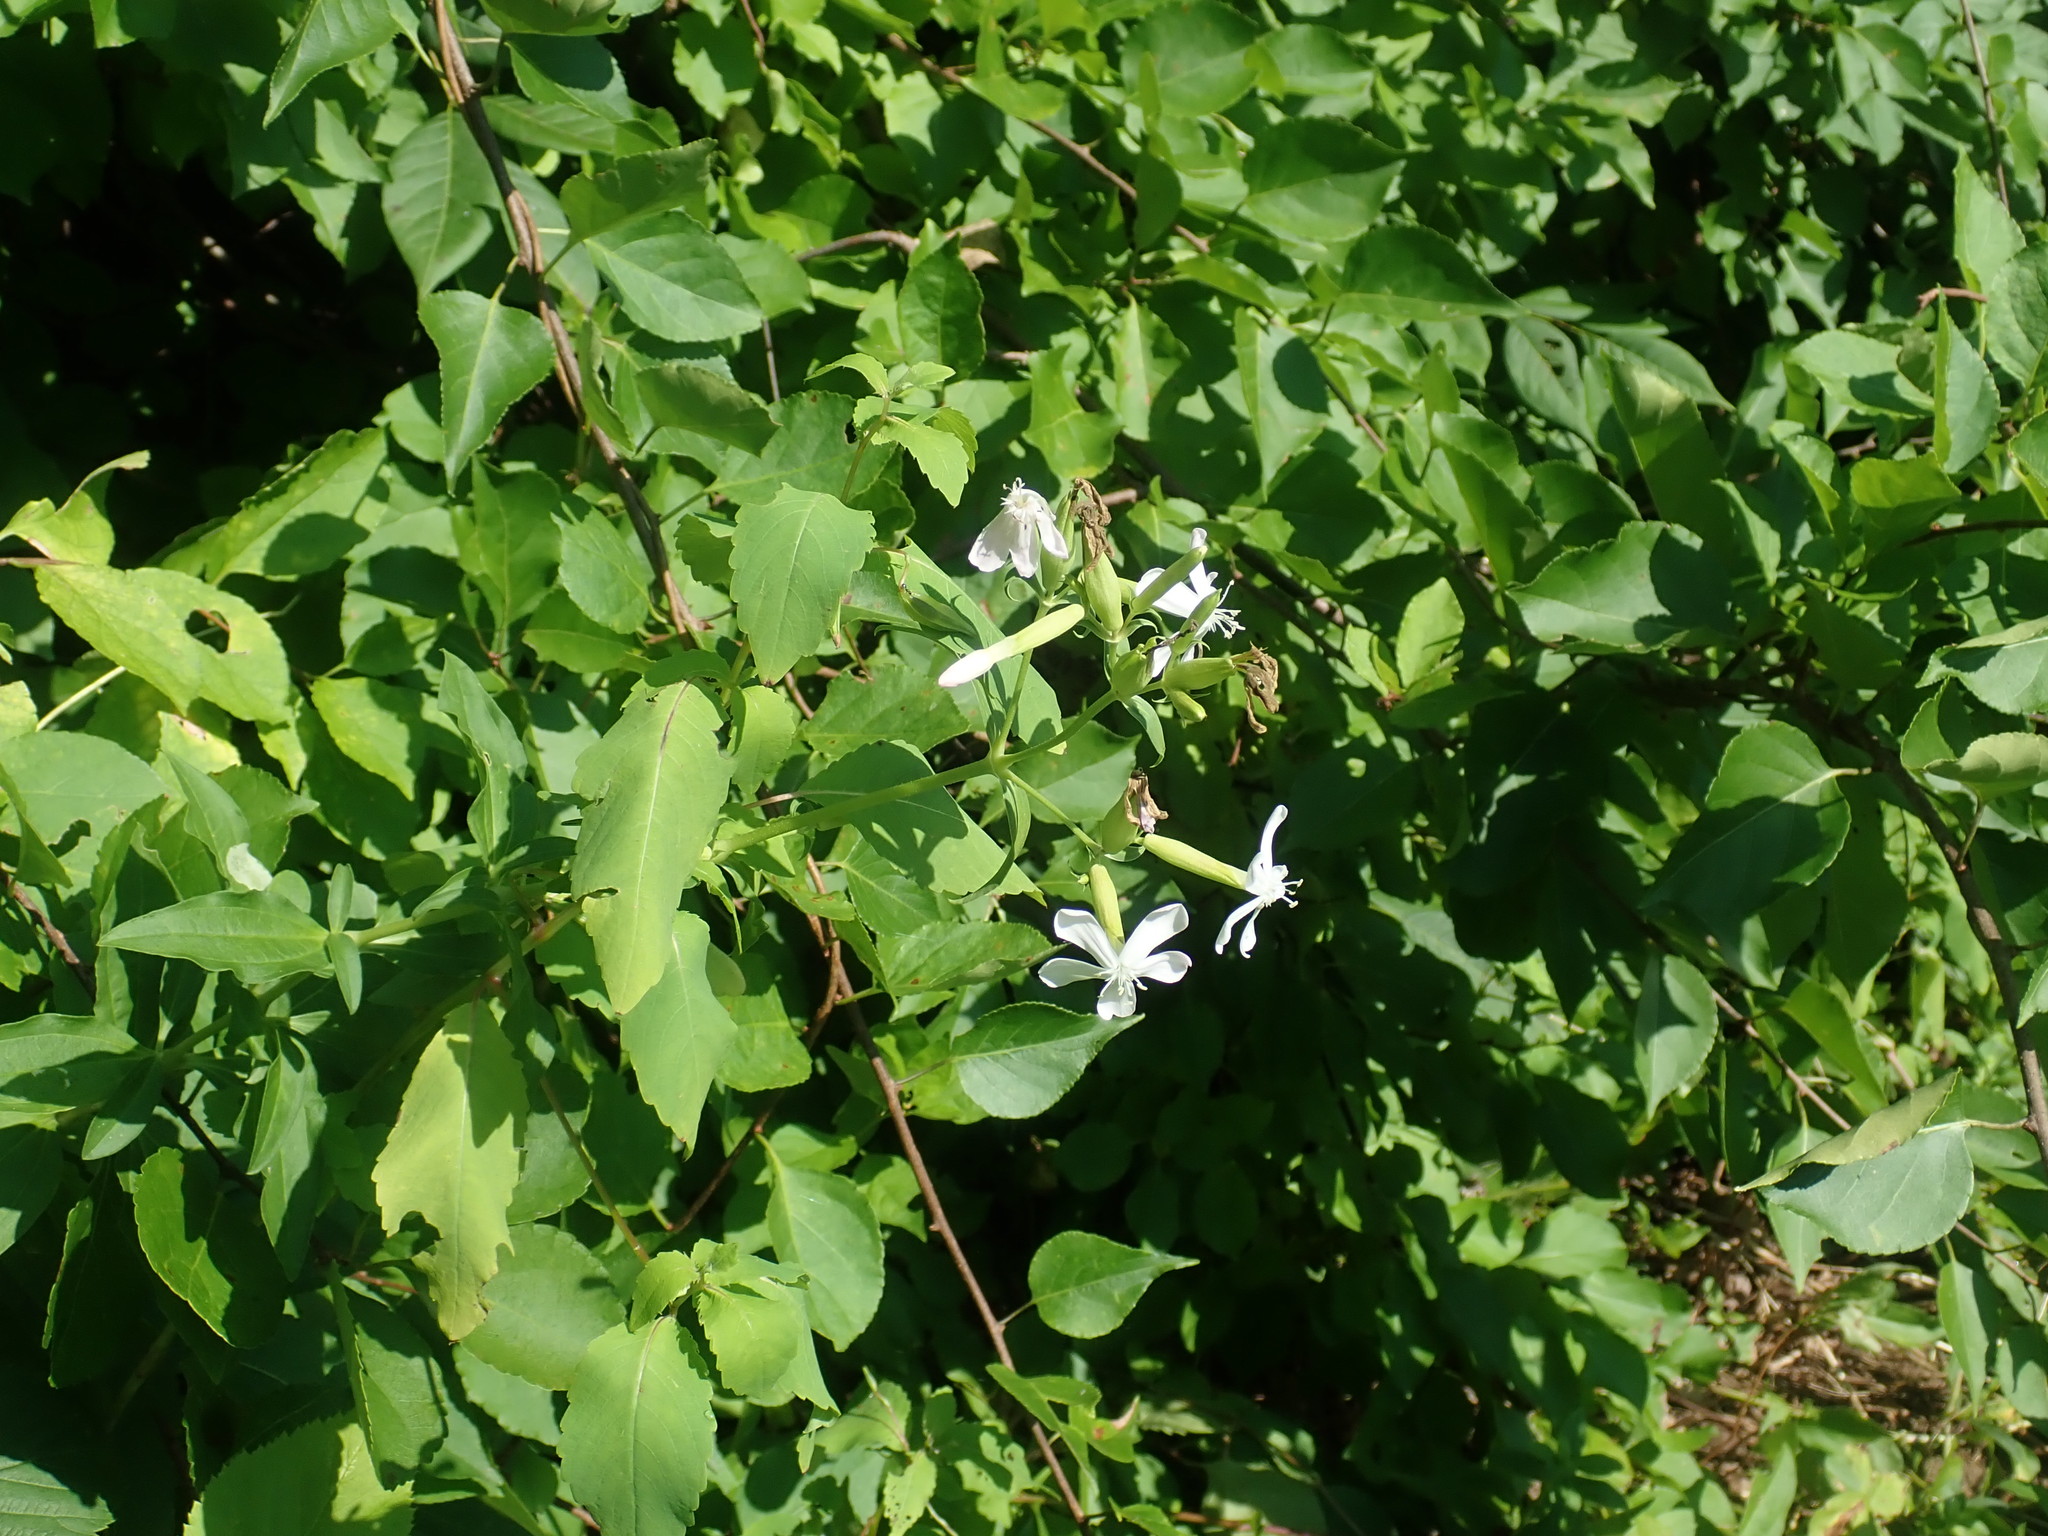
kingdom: Plantae
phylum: Tracheophyta
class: Magnoliopsida
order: Caryophyllales
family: Caryophyllaceae
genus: Saponaria
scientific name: Saponaria officinalis
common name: Soapwort
